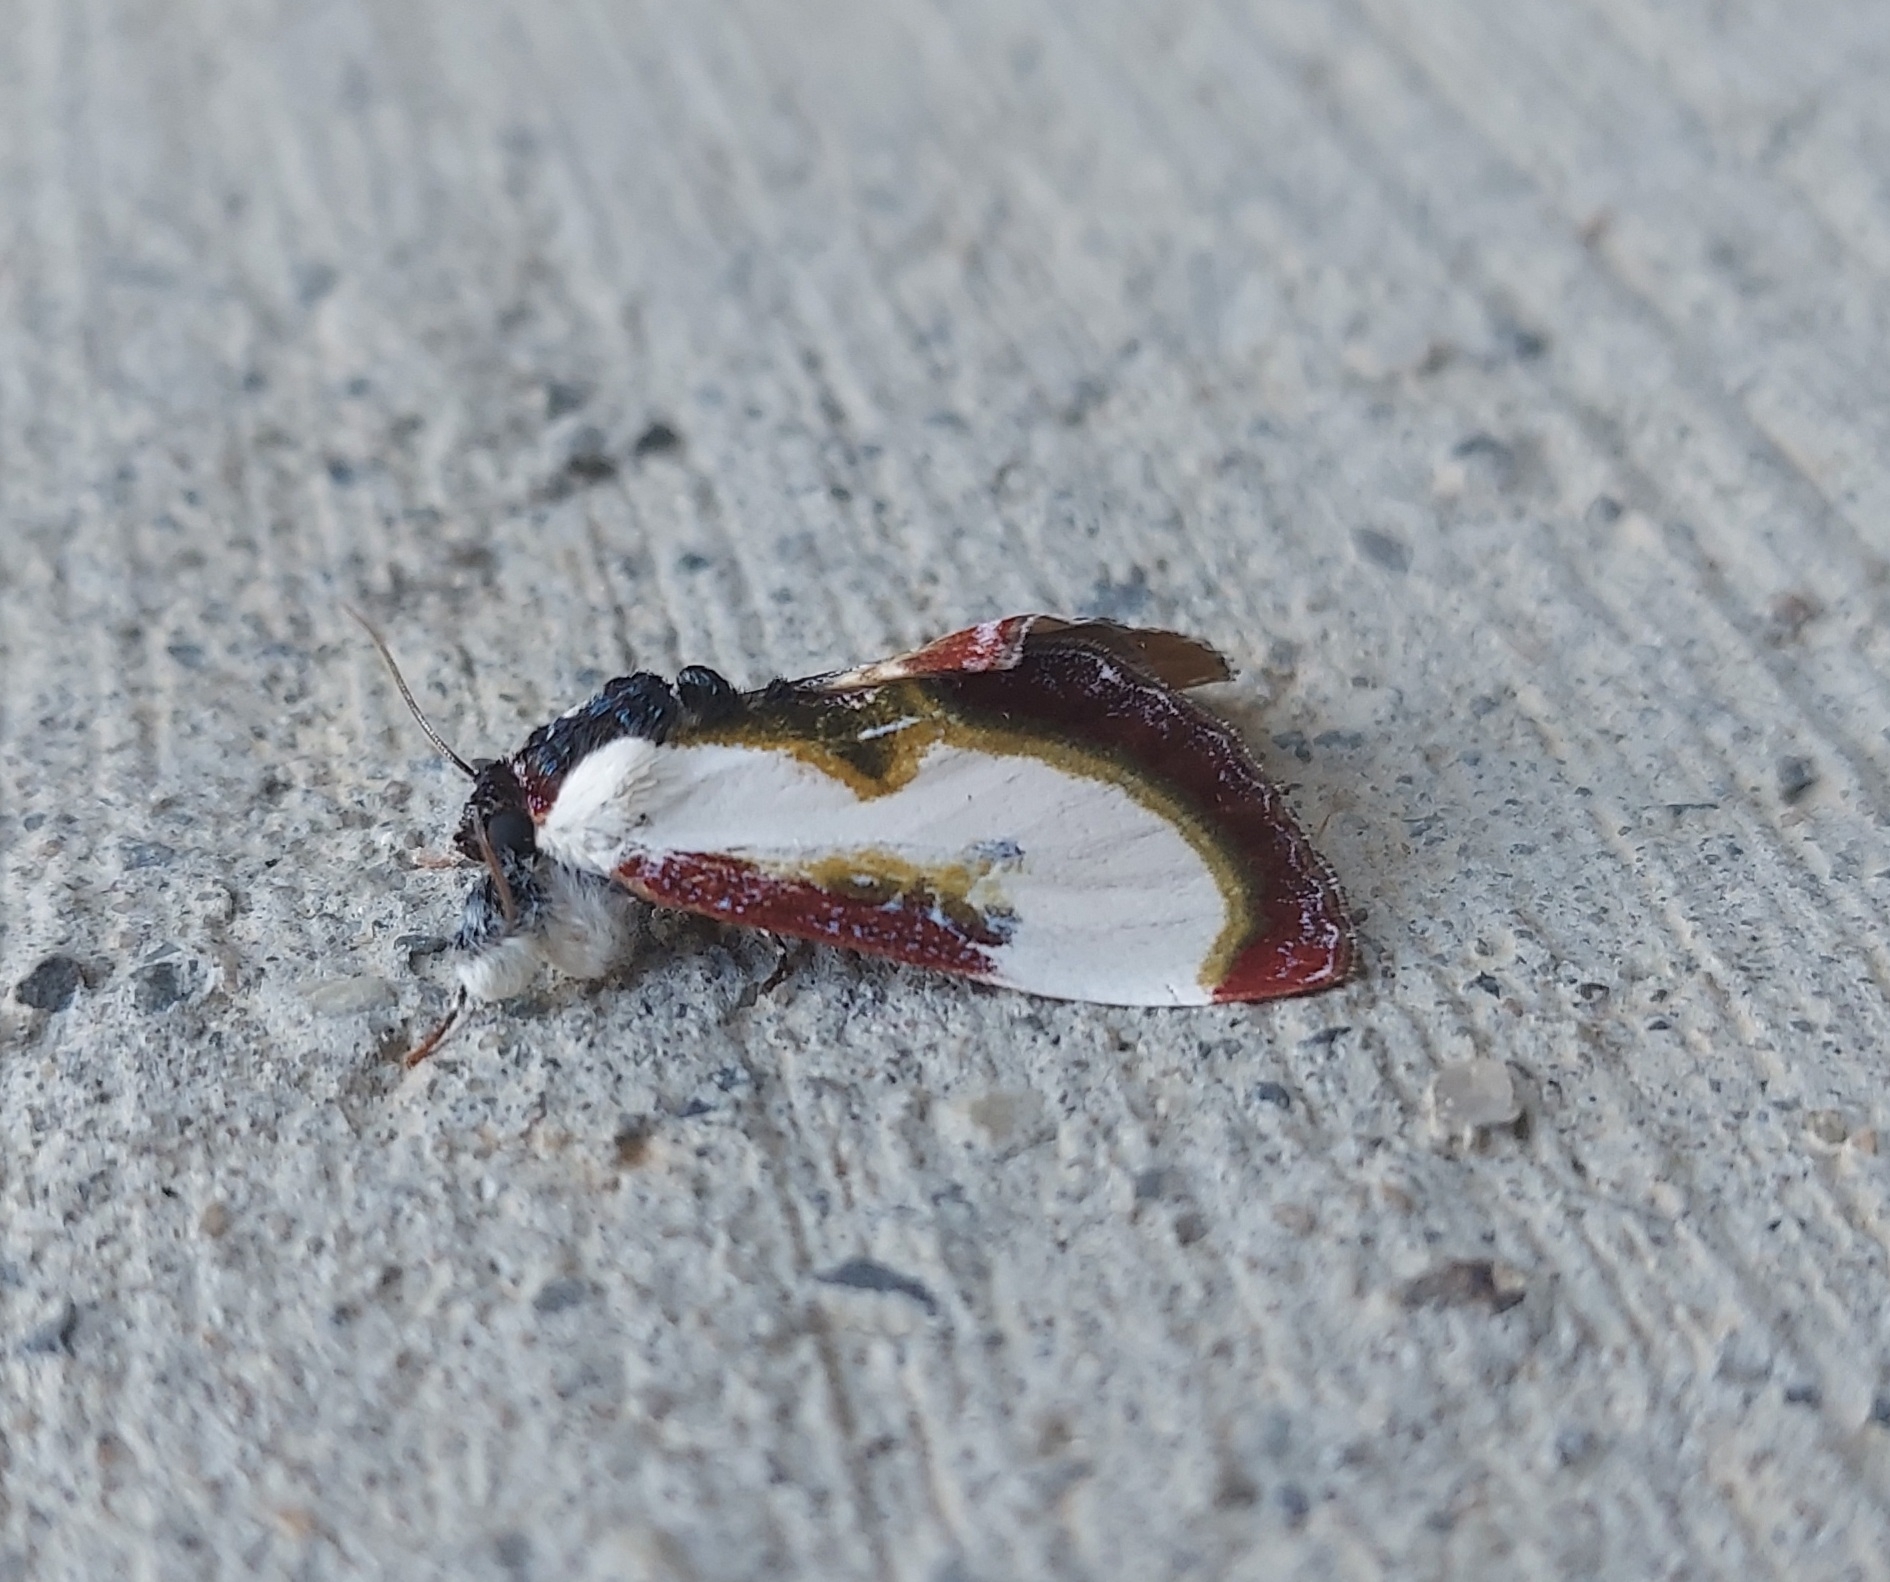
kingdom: Animalia
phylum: Arthropoda
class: Insecta
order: Lepidoptera
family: Noctuidae
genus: Eudryas
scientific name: Eudryas grata
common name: Beautiful wood-nymph
